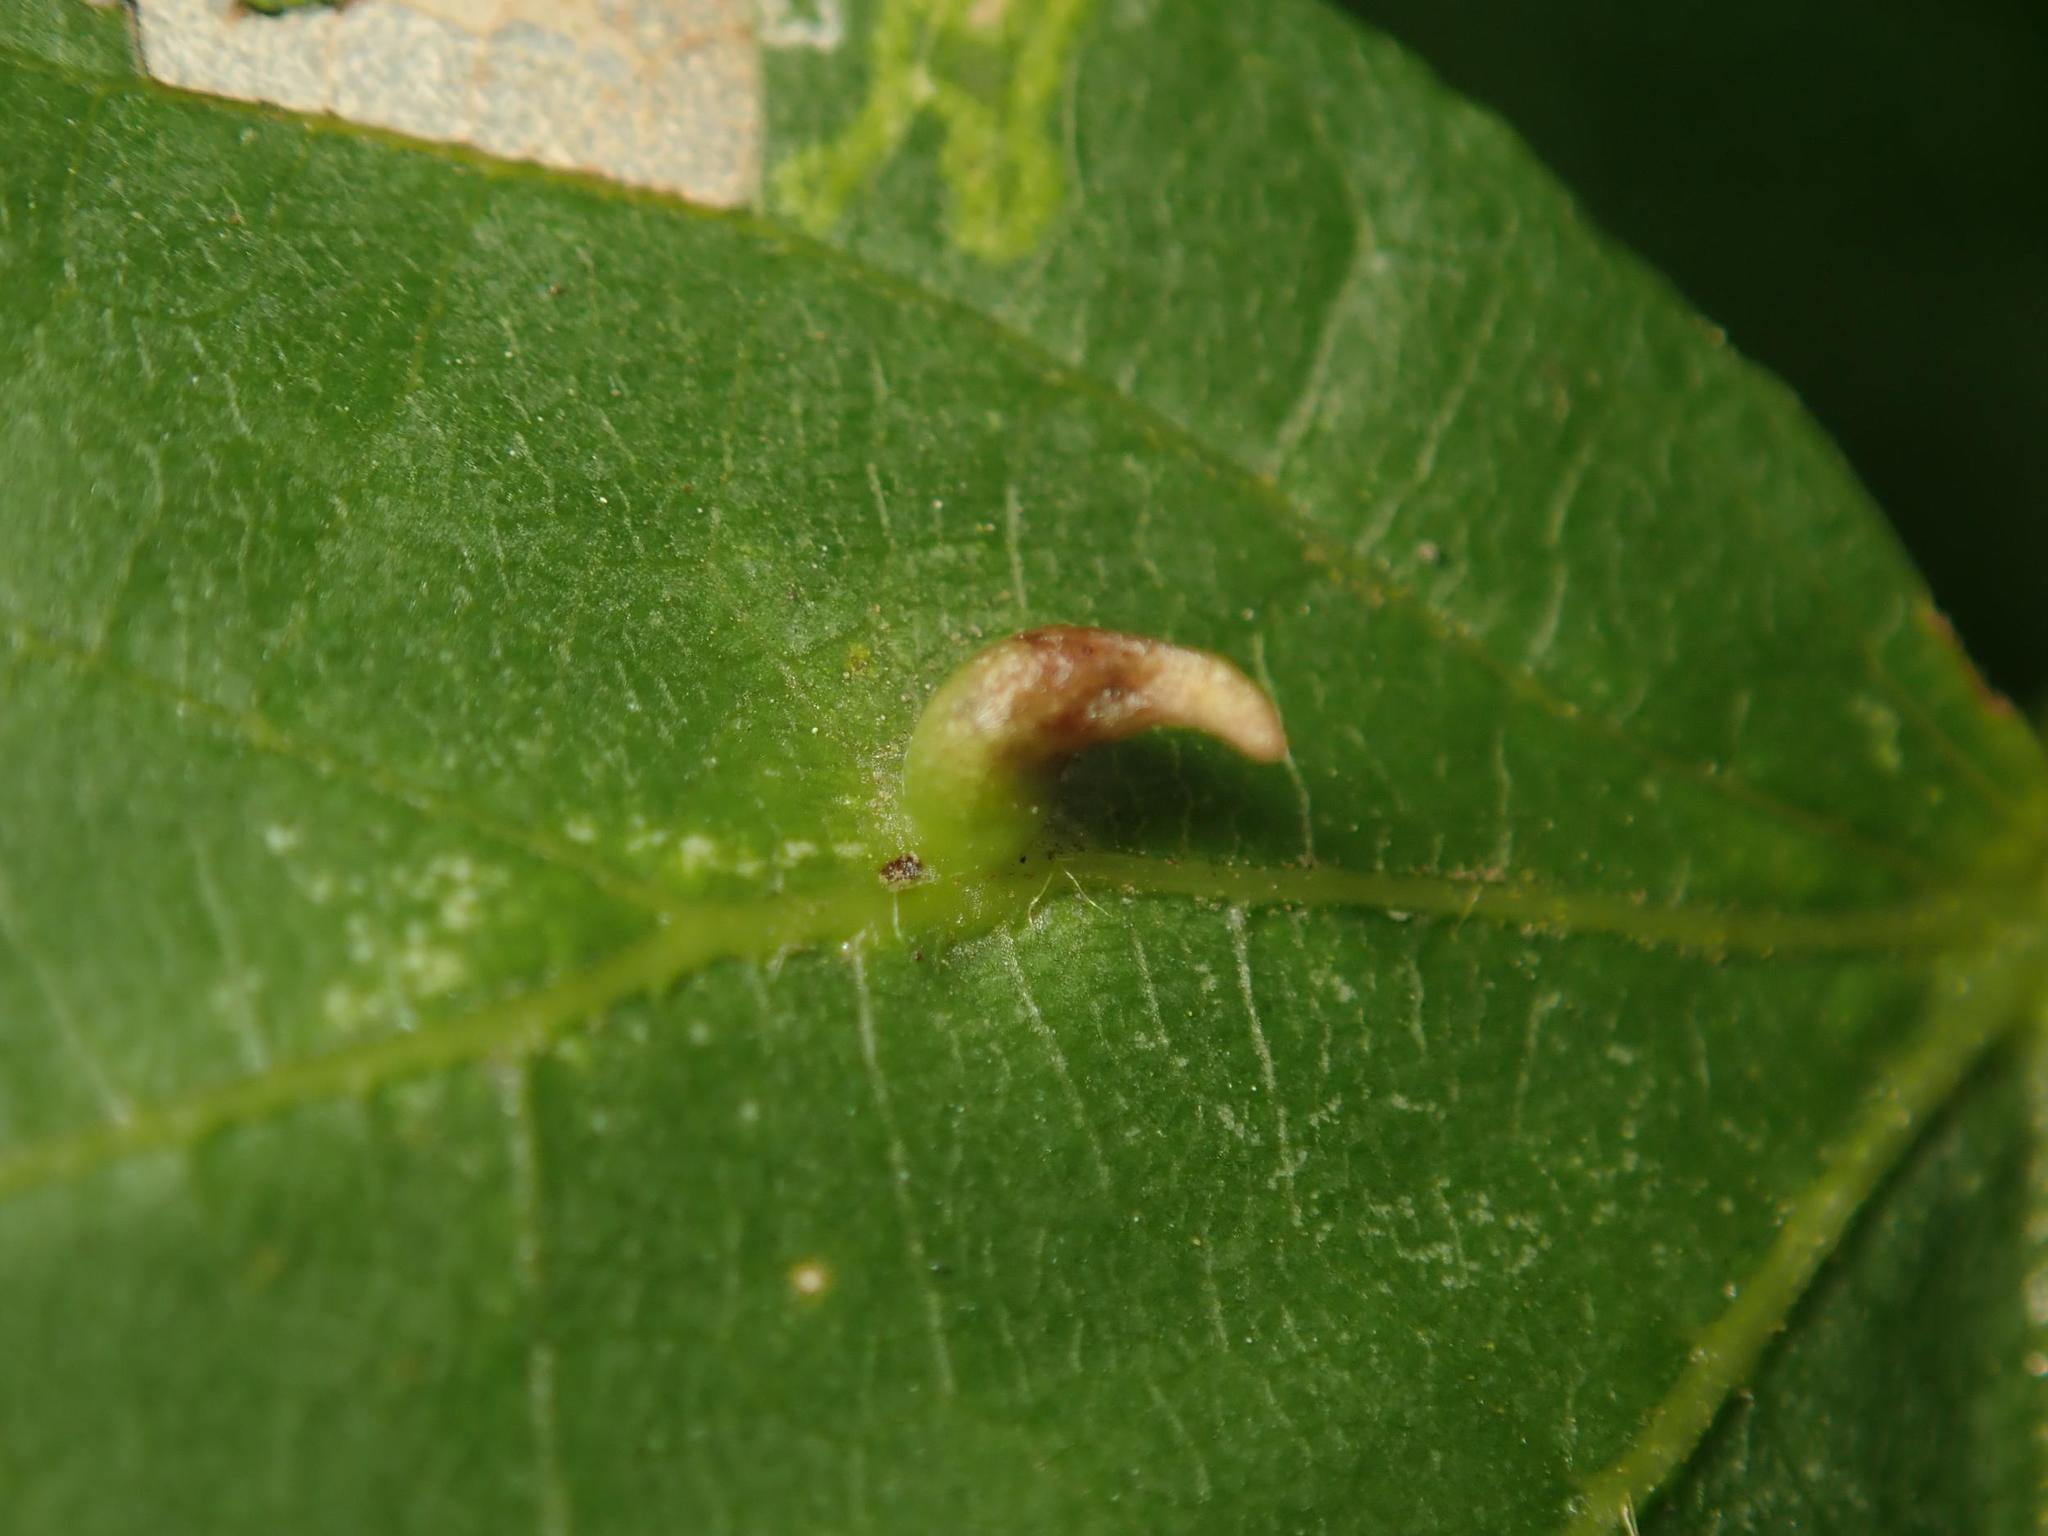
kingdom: Animalia
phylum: Arthropoda
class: Arachnida
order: Trombidiformes
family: Eriophyidae
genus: Eriophyes
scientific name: Eriophyes tiliae
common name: Red nail gall mite
